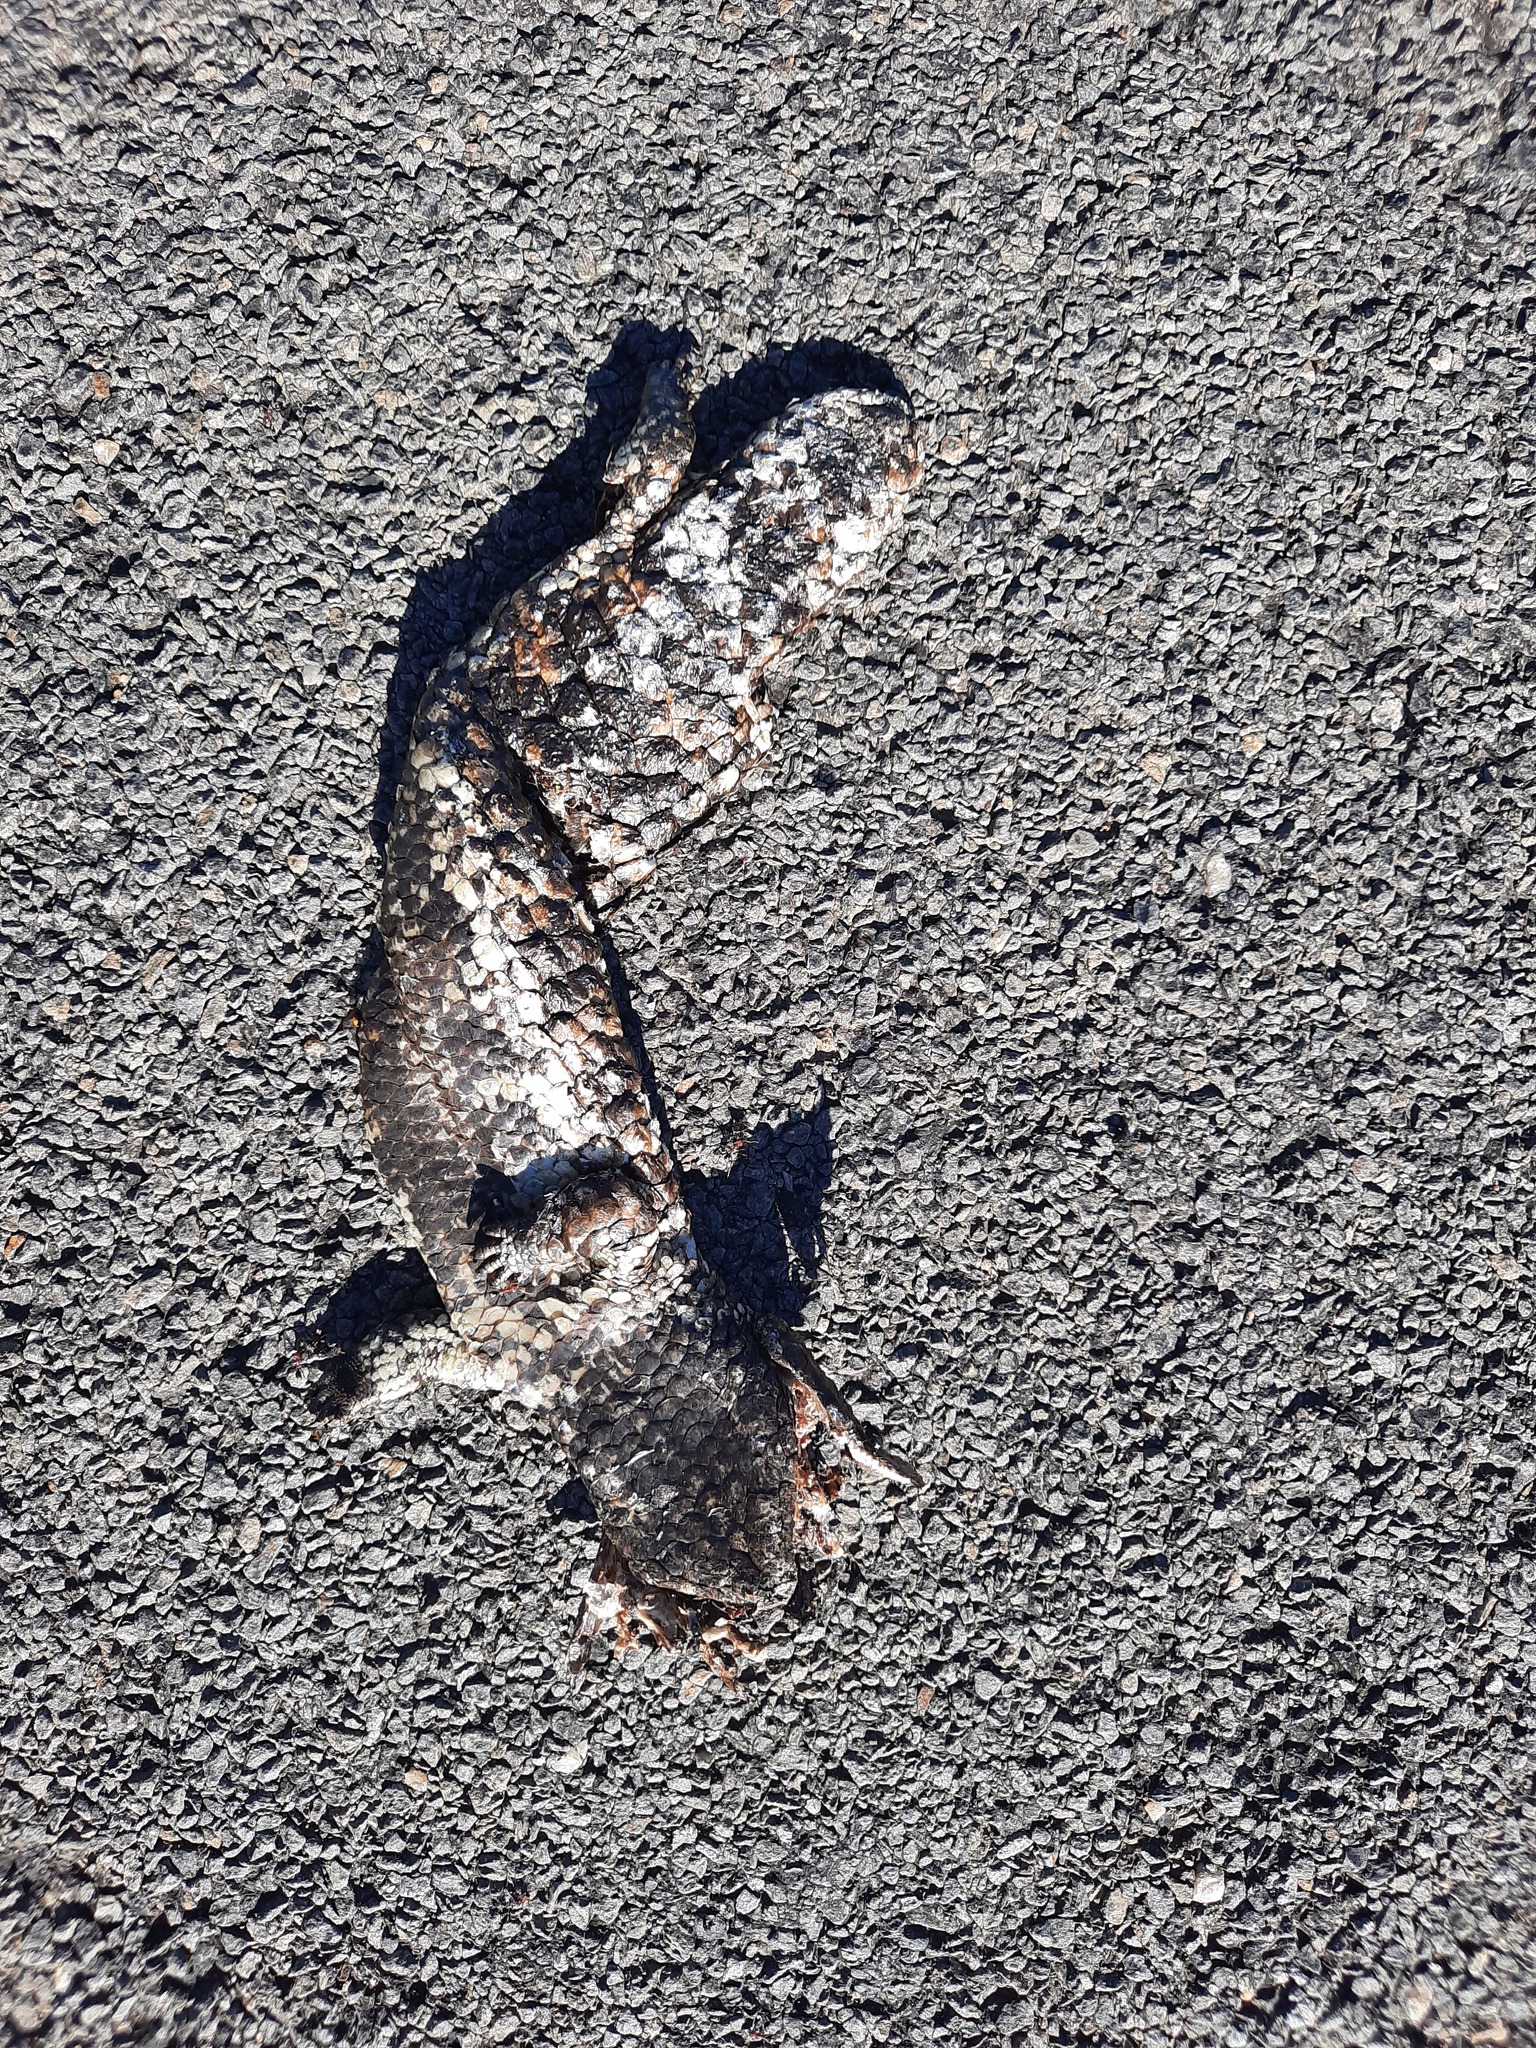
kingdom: Animalia
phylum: Chordata
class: Squamata
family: Scincidae
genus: Tiliqua
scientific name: Tiliqua rugosa
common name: Pinecone lizard
